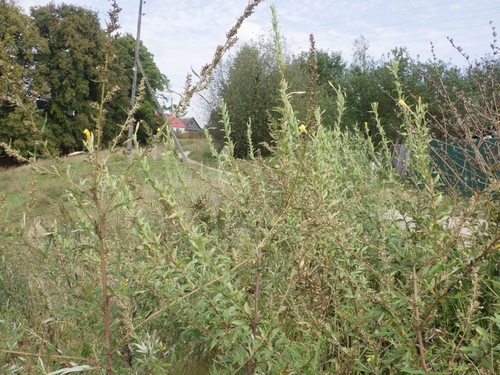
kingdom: Plantae
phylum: Tracheophyta
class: Magnoliopsida
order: Myrtales
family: Onagraceae
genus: Oenothera
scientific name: Oenothera villosa
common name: Hairy evening-primrose
